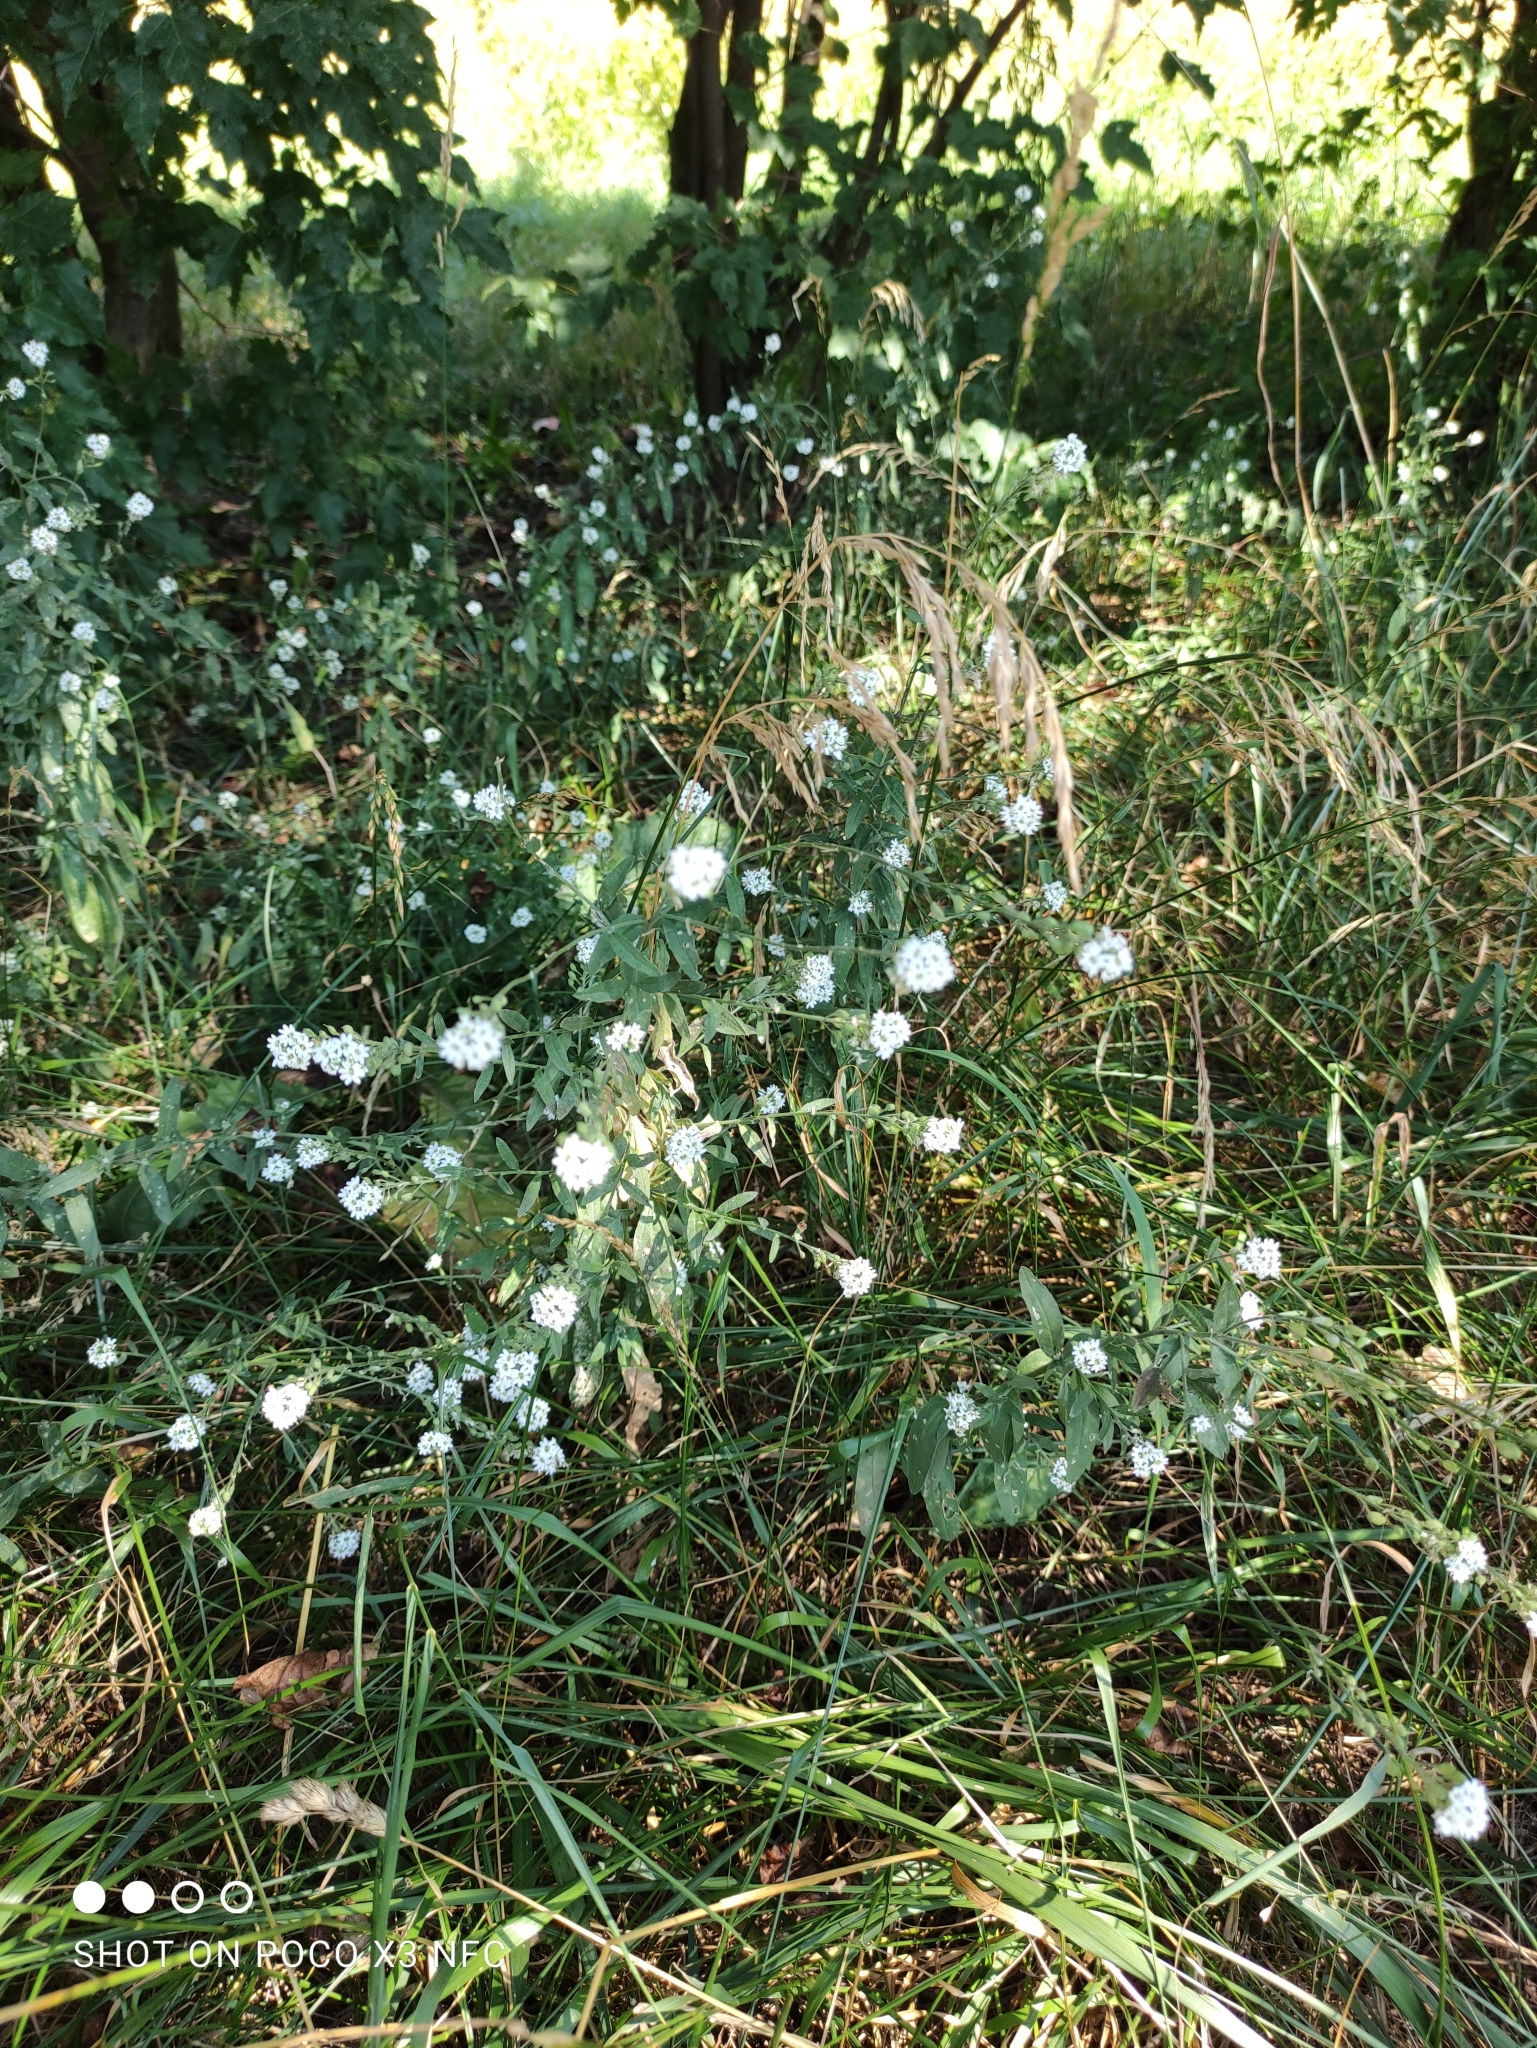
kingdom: Plantae
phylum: Tracheophyta
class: Magnoliopsida
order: Brassicales
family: Brassicaceae
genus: Berteroa
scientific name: Berteroa incana
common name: Hoary alison
